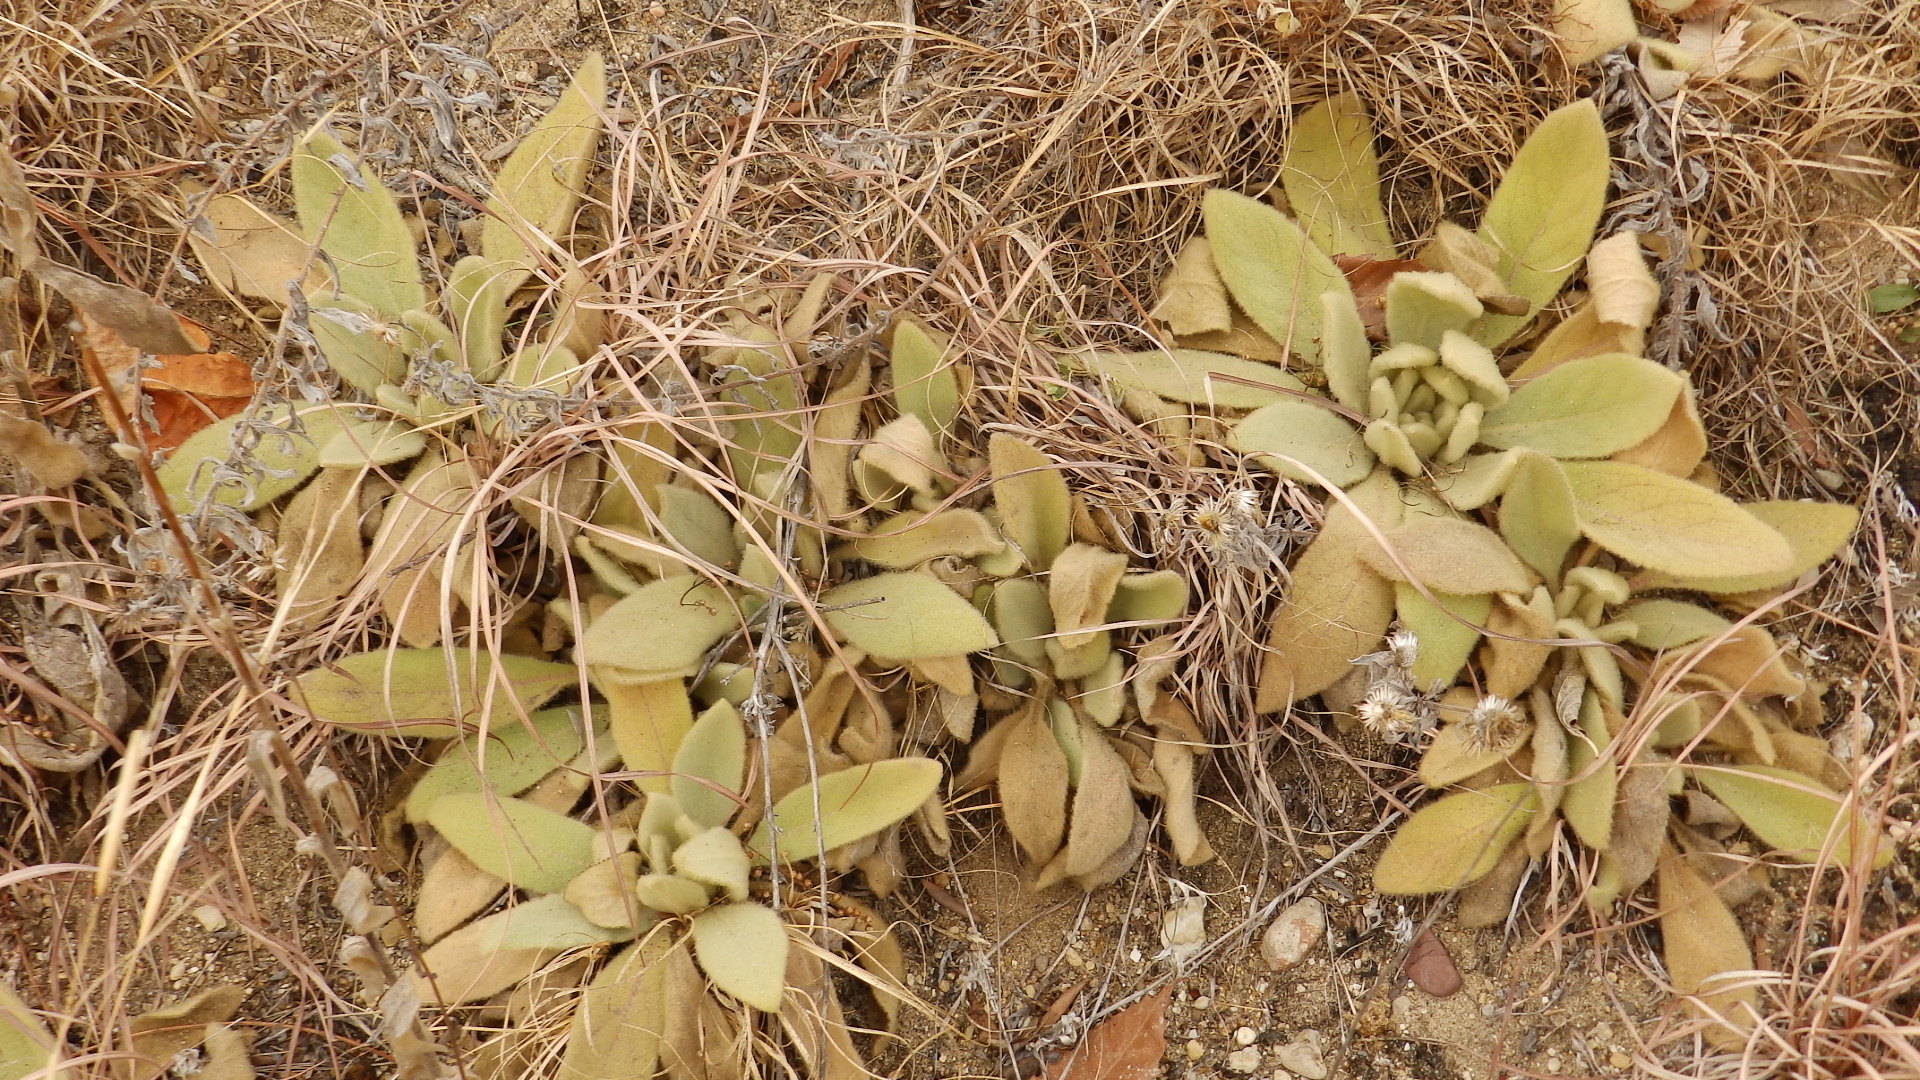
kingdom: Plantae
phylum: Tracheophyta
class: Magnoliopsida
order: Lamiales
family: Scrophulariaceae
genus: Verbascum
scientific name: Verbascum thapsus
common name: Common mullein
